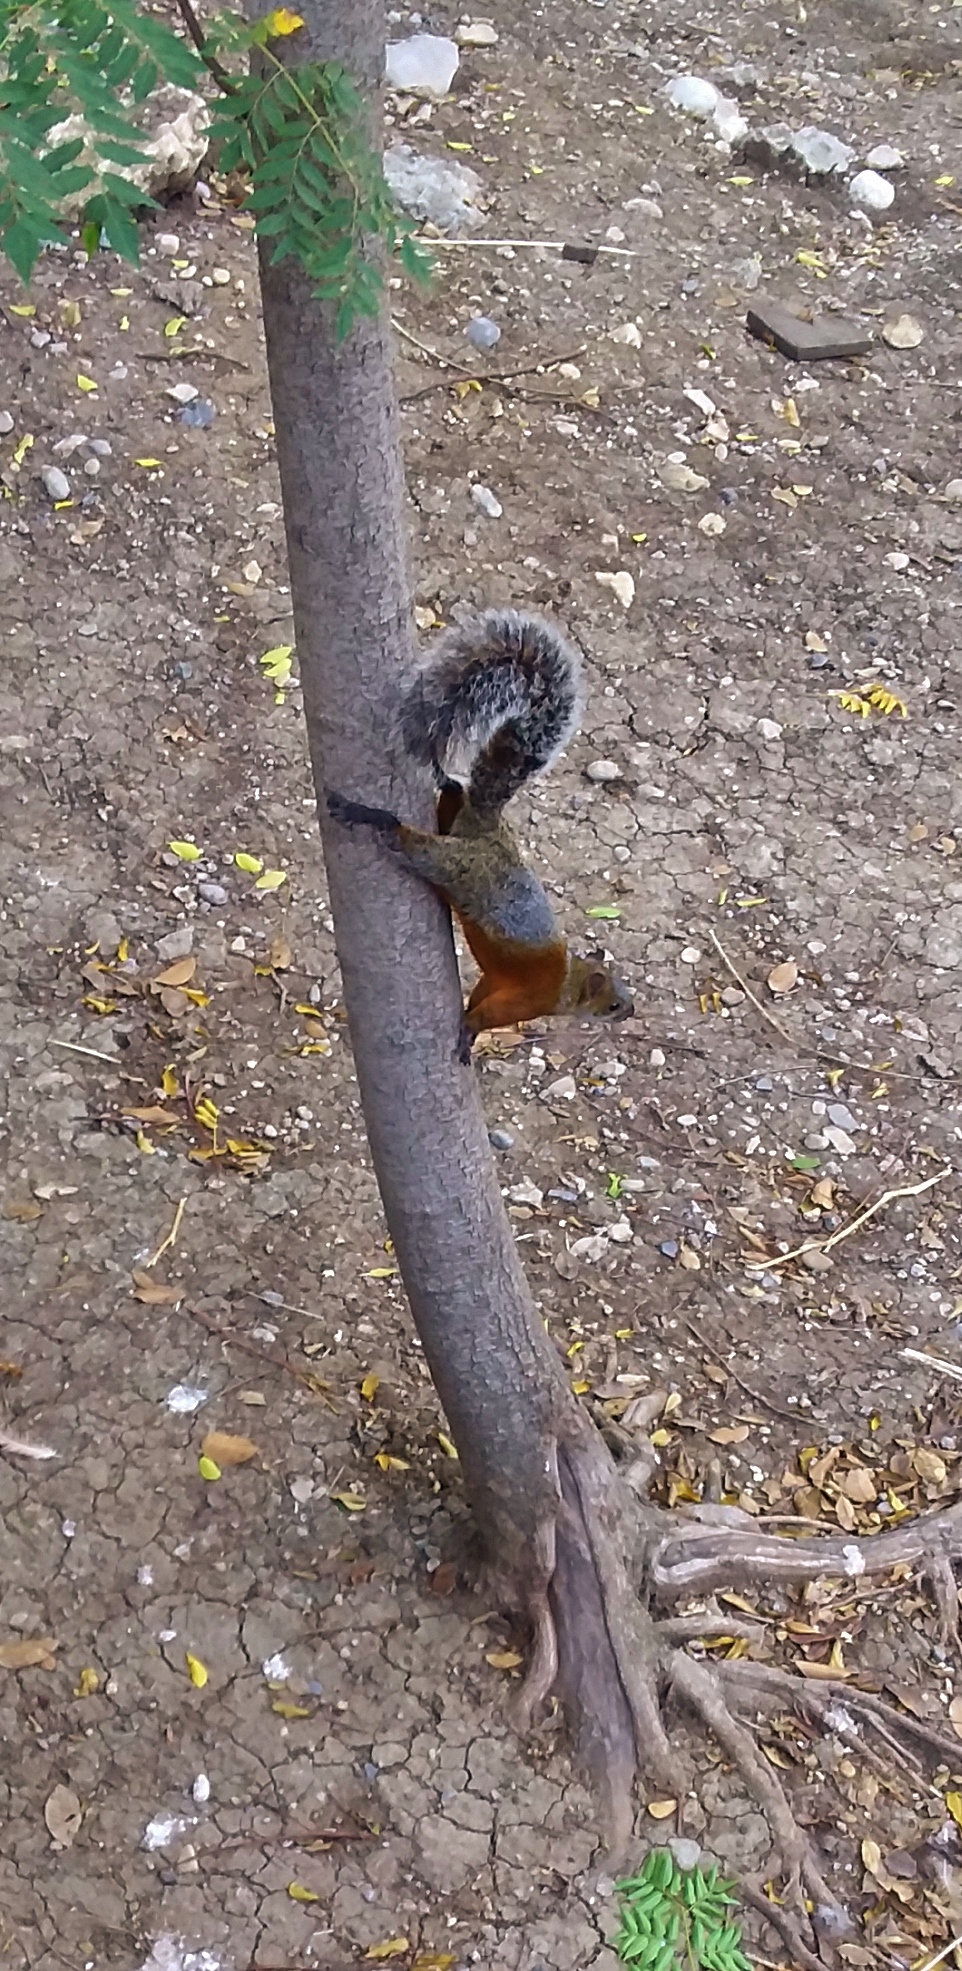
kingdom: Animalia
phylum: Chordata
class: Mammalia
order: Rodentia
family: Sciuridae
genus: Sciurus
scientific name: Sciurus aureogaster
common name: Red-bellied squirrel
